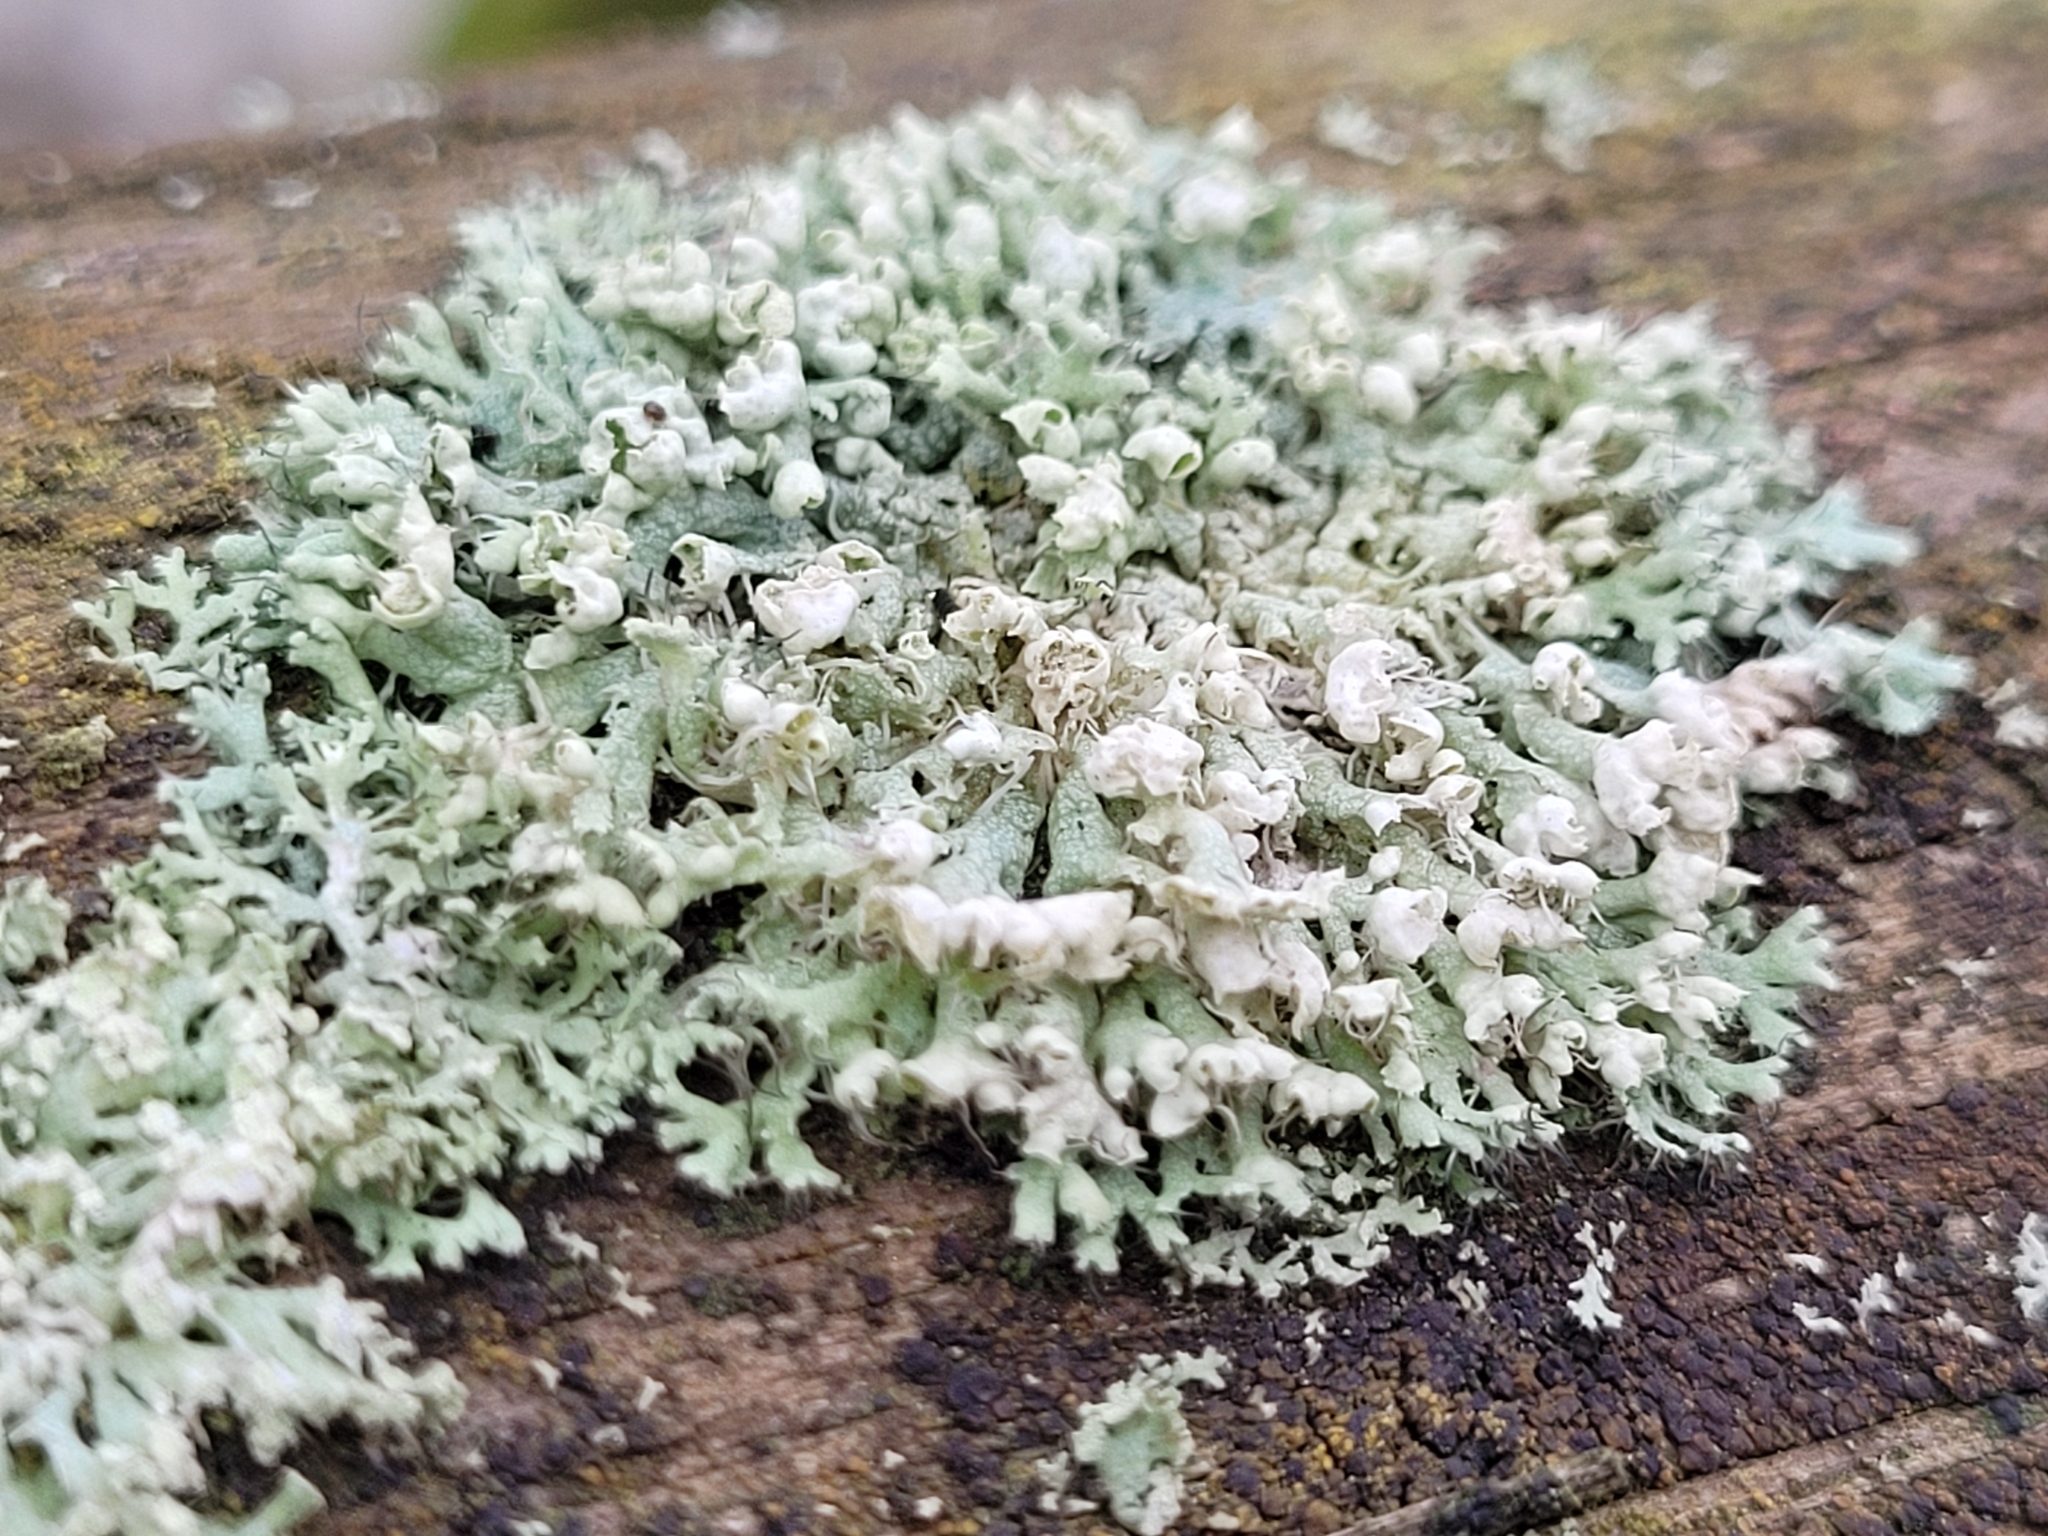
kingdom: Fungi
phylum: Ascomycota
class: Lecanoromycetes
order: Caliciales
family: Physciaceae
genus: Physcia
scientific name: Physcia adscendens
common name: Hooded rosette lichen
